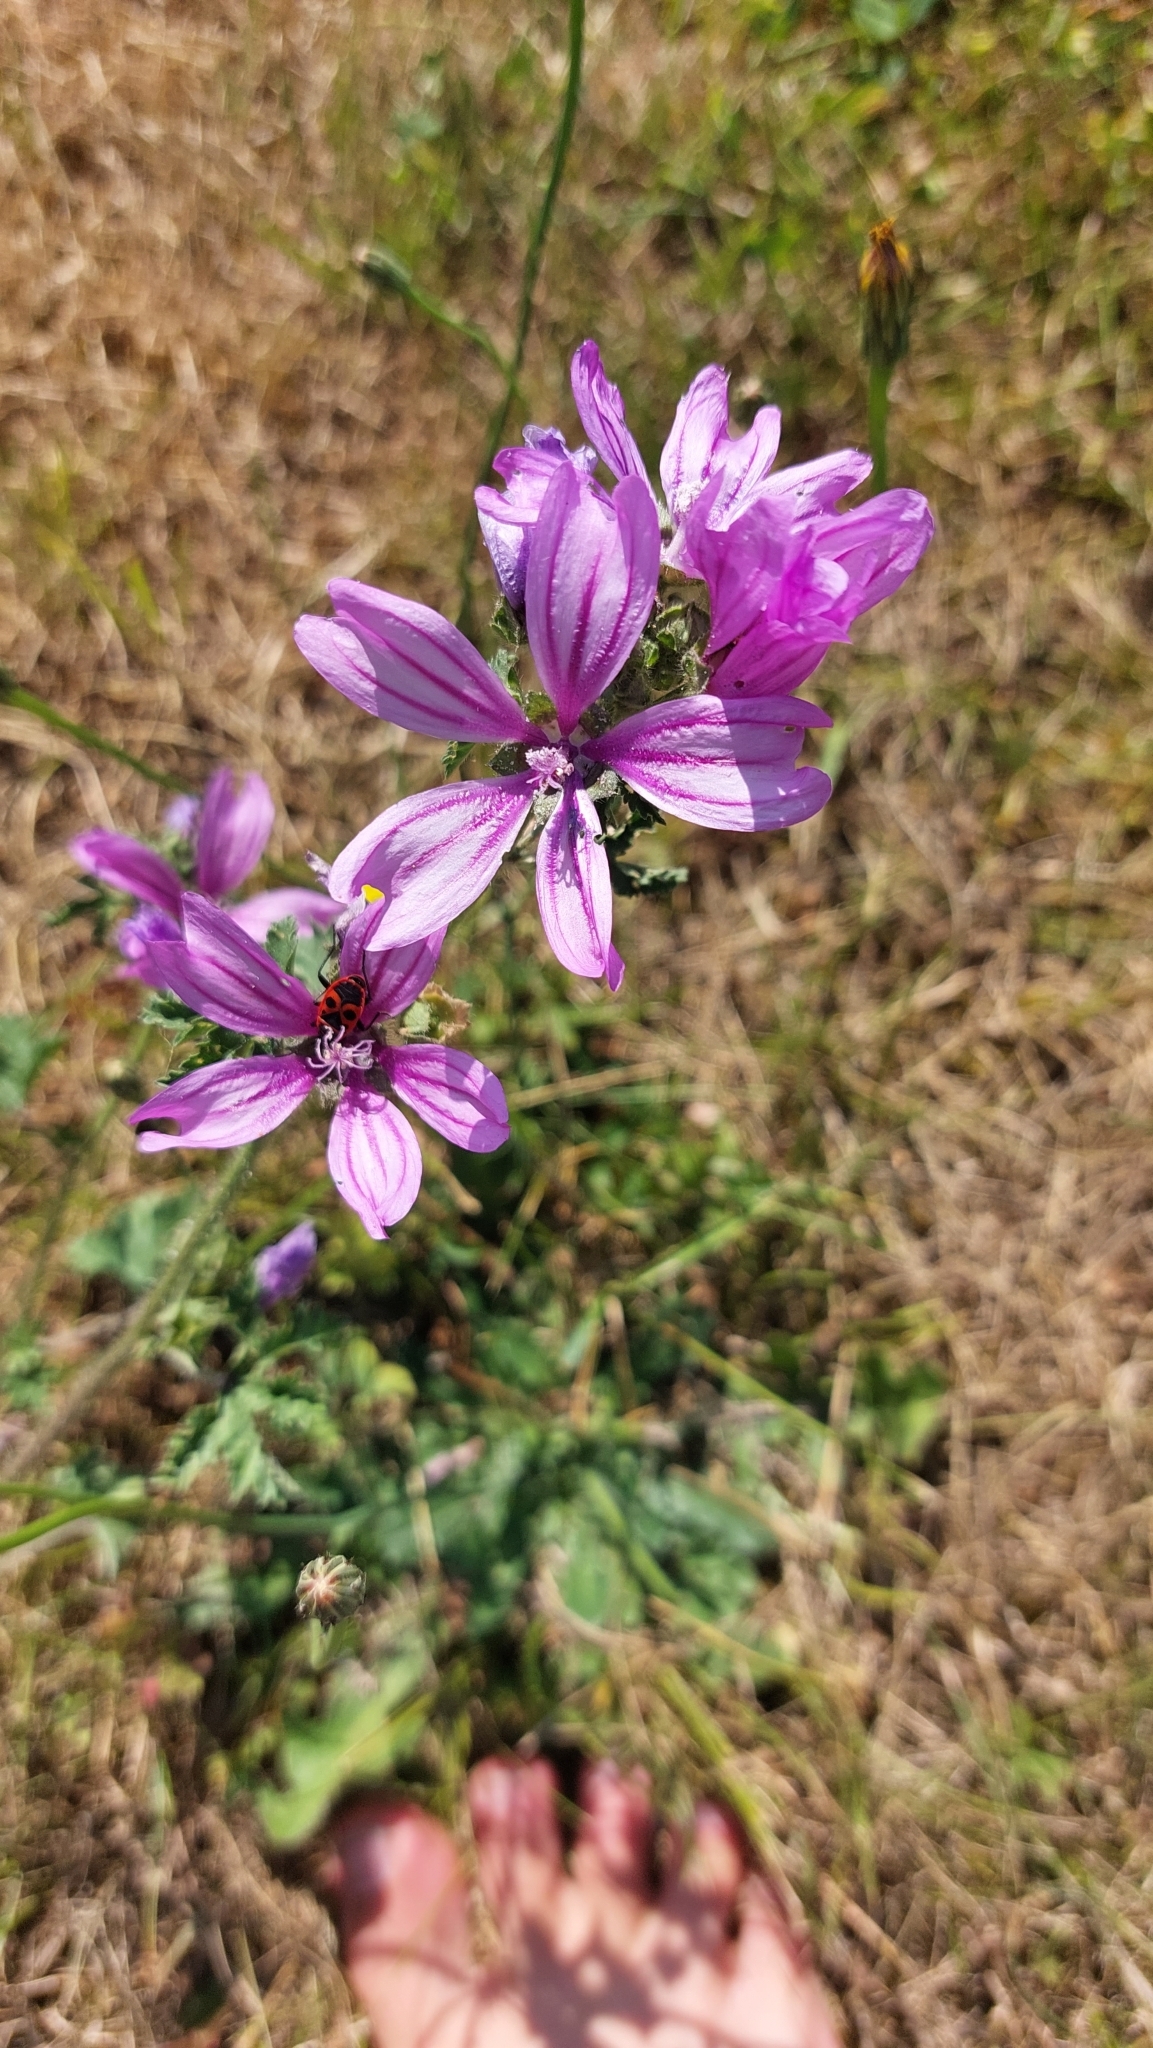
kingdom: Plantae
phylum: Tracheophyta
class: Magnoliopsida
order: Malvales
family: Malvaceae
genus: Malva
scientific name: Malva sylvestris
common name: Common mallow
